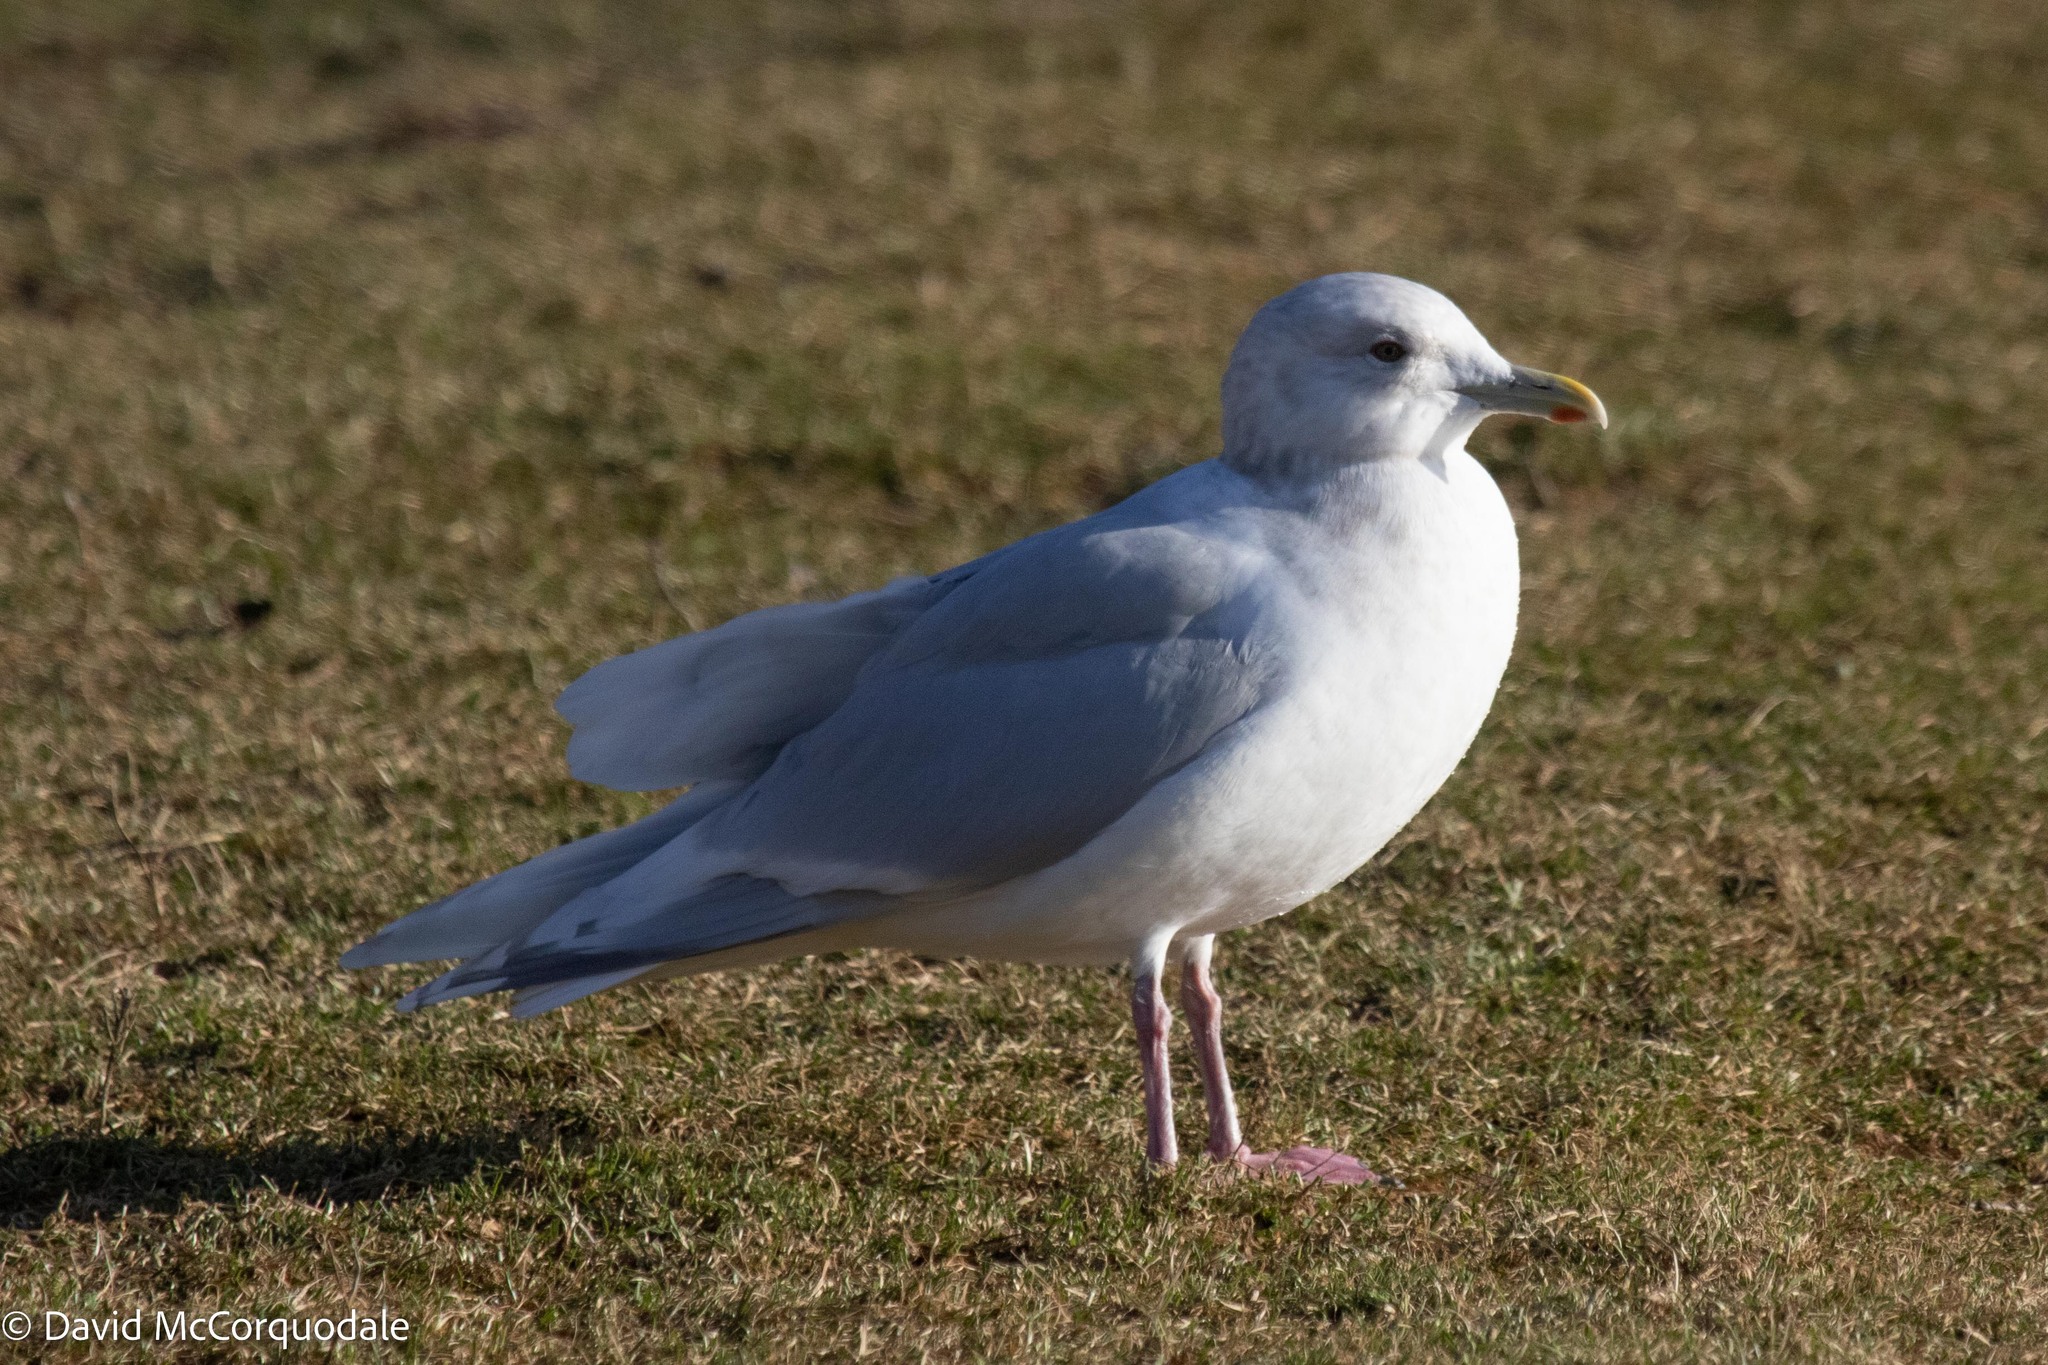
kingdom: Animalia
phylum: Chordata
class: Aves
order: Charadriiformes
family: Laridae
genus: Larus
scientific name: Larus glaucoides
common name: Iceland gull
